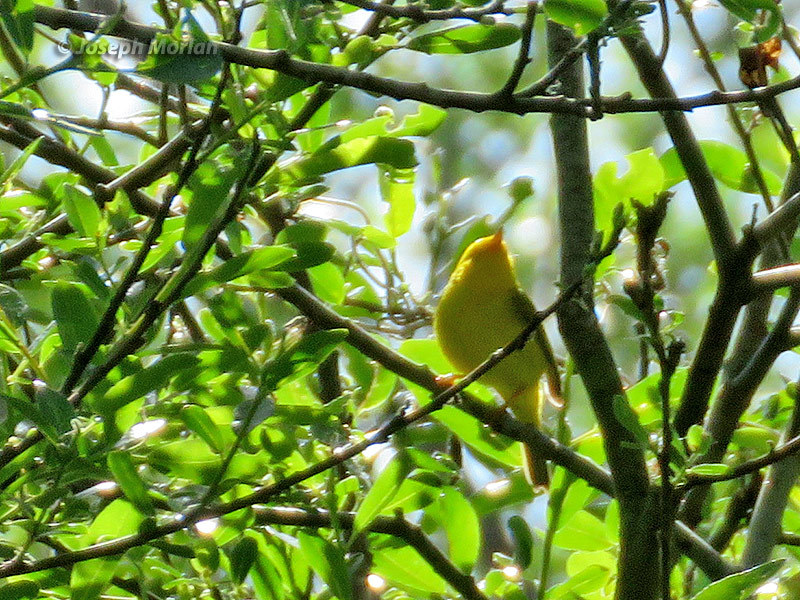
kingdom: Animalia
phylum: Chordata
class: Aves
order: Passeriformes
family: Parulidae
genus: Cardellina
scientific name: Cardellina pusilla
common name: Wilson's warbler
